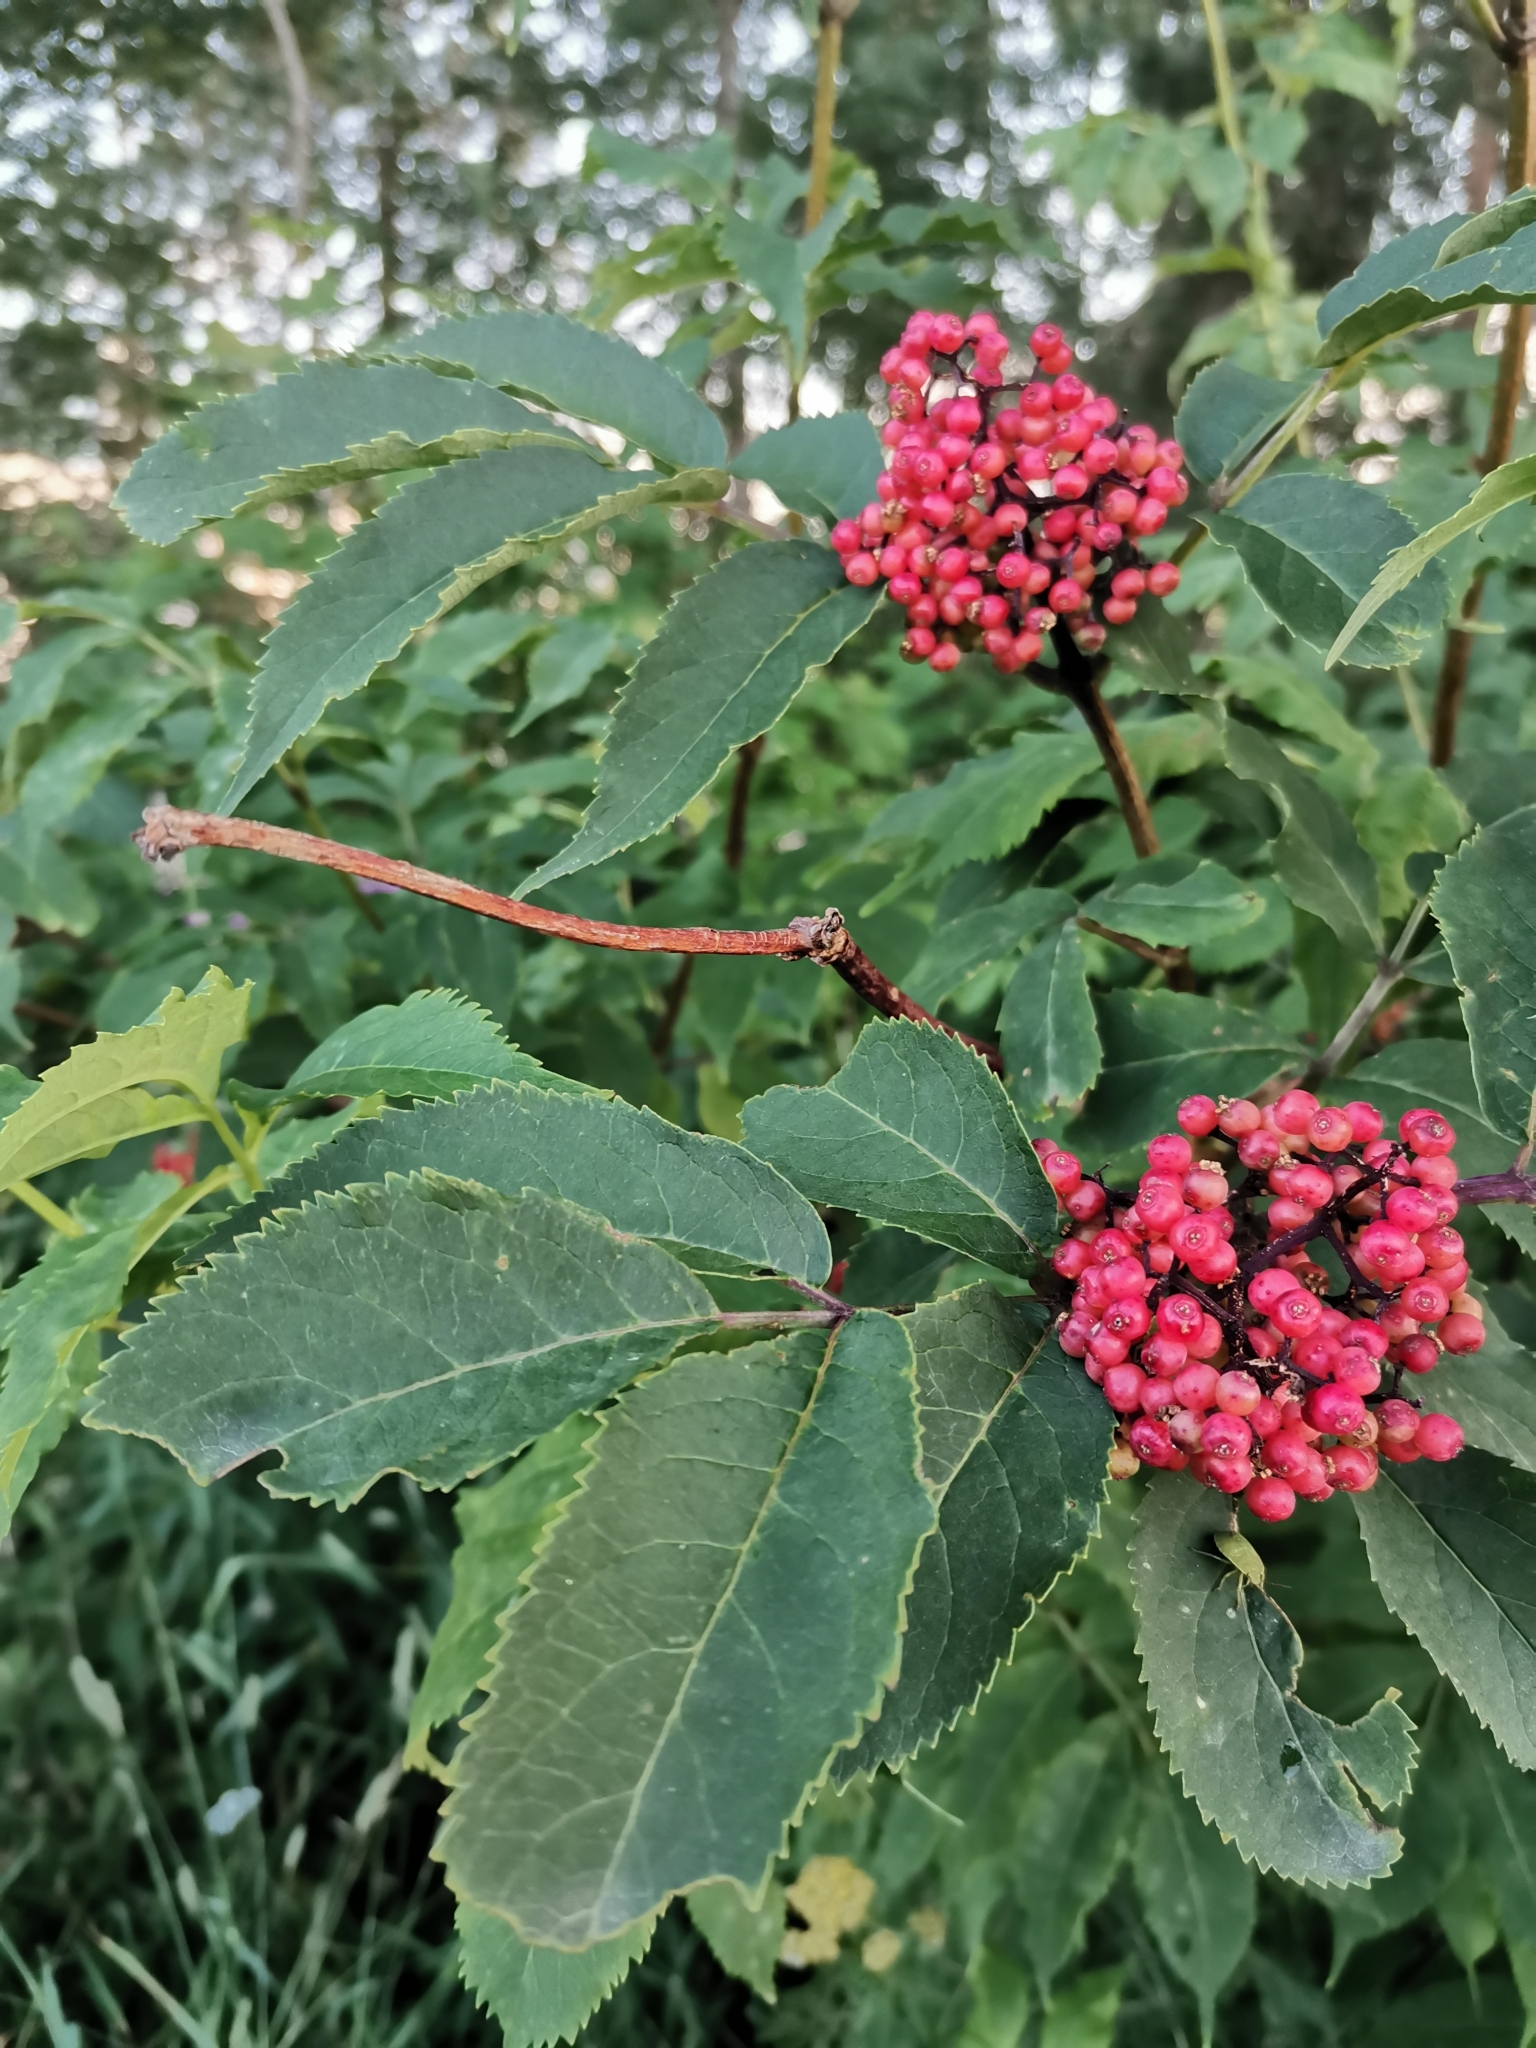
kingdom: Plantae
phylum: Tracheophyta
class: Magnoliopsida
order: Dipsacales
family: Viburnaceae
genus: Sambucus
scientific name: Sambucus racemosa
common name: Red-berried elder
